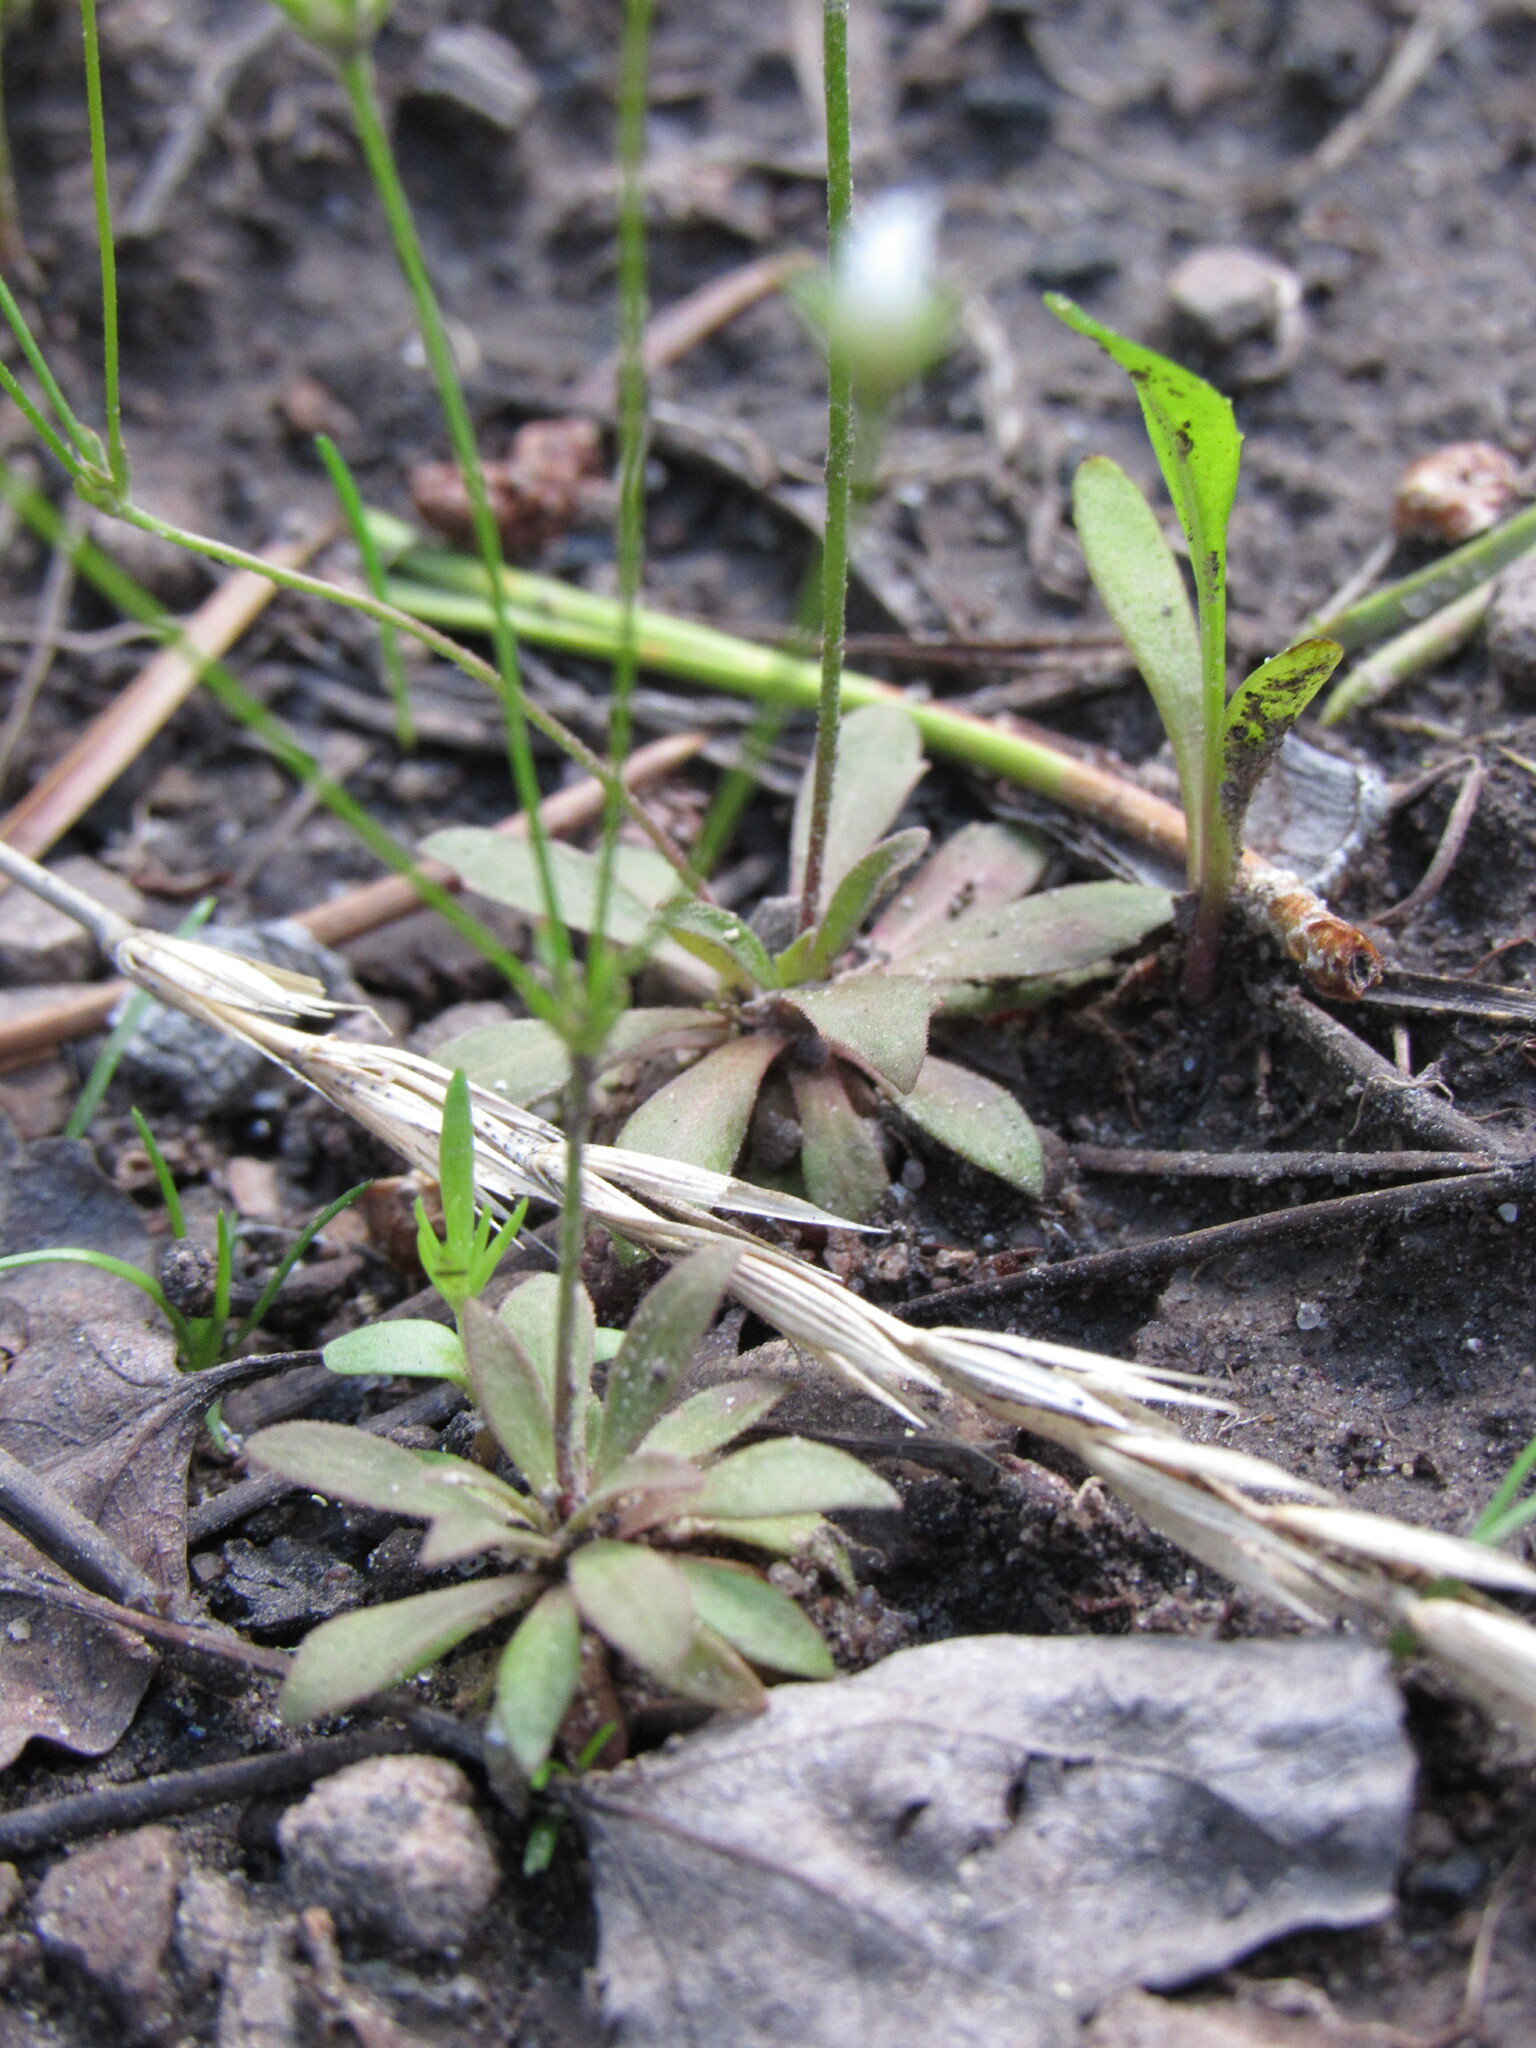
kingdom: Plantae
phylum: Tracheophyta
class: Magnoliopsida
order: Ericales
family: Primulaceae
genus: Androsace
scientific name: Androsace septentrionalis
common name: Hairy northern fairy-candelabra
